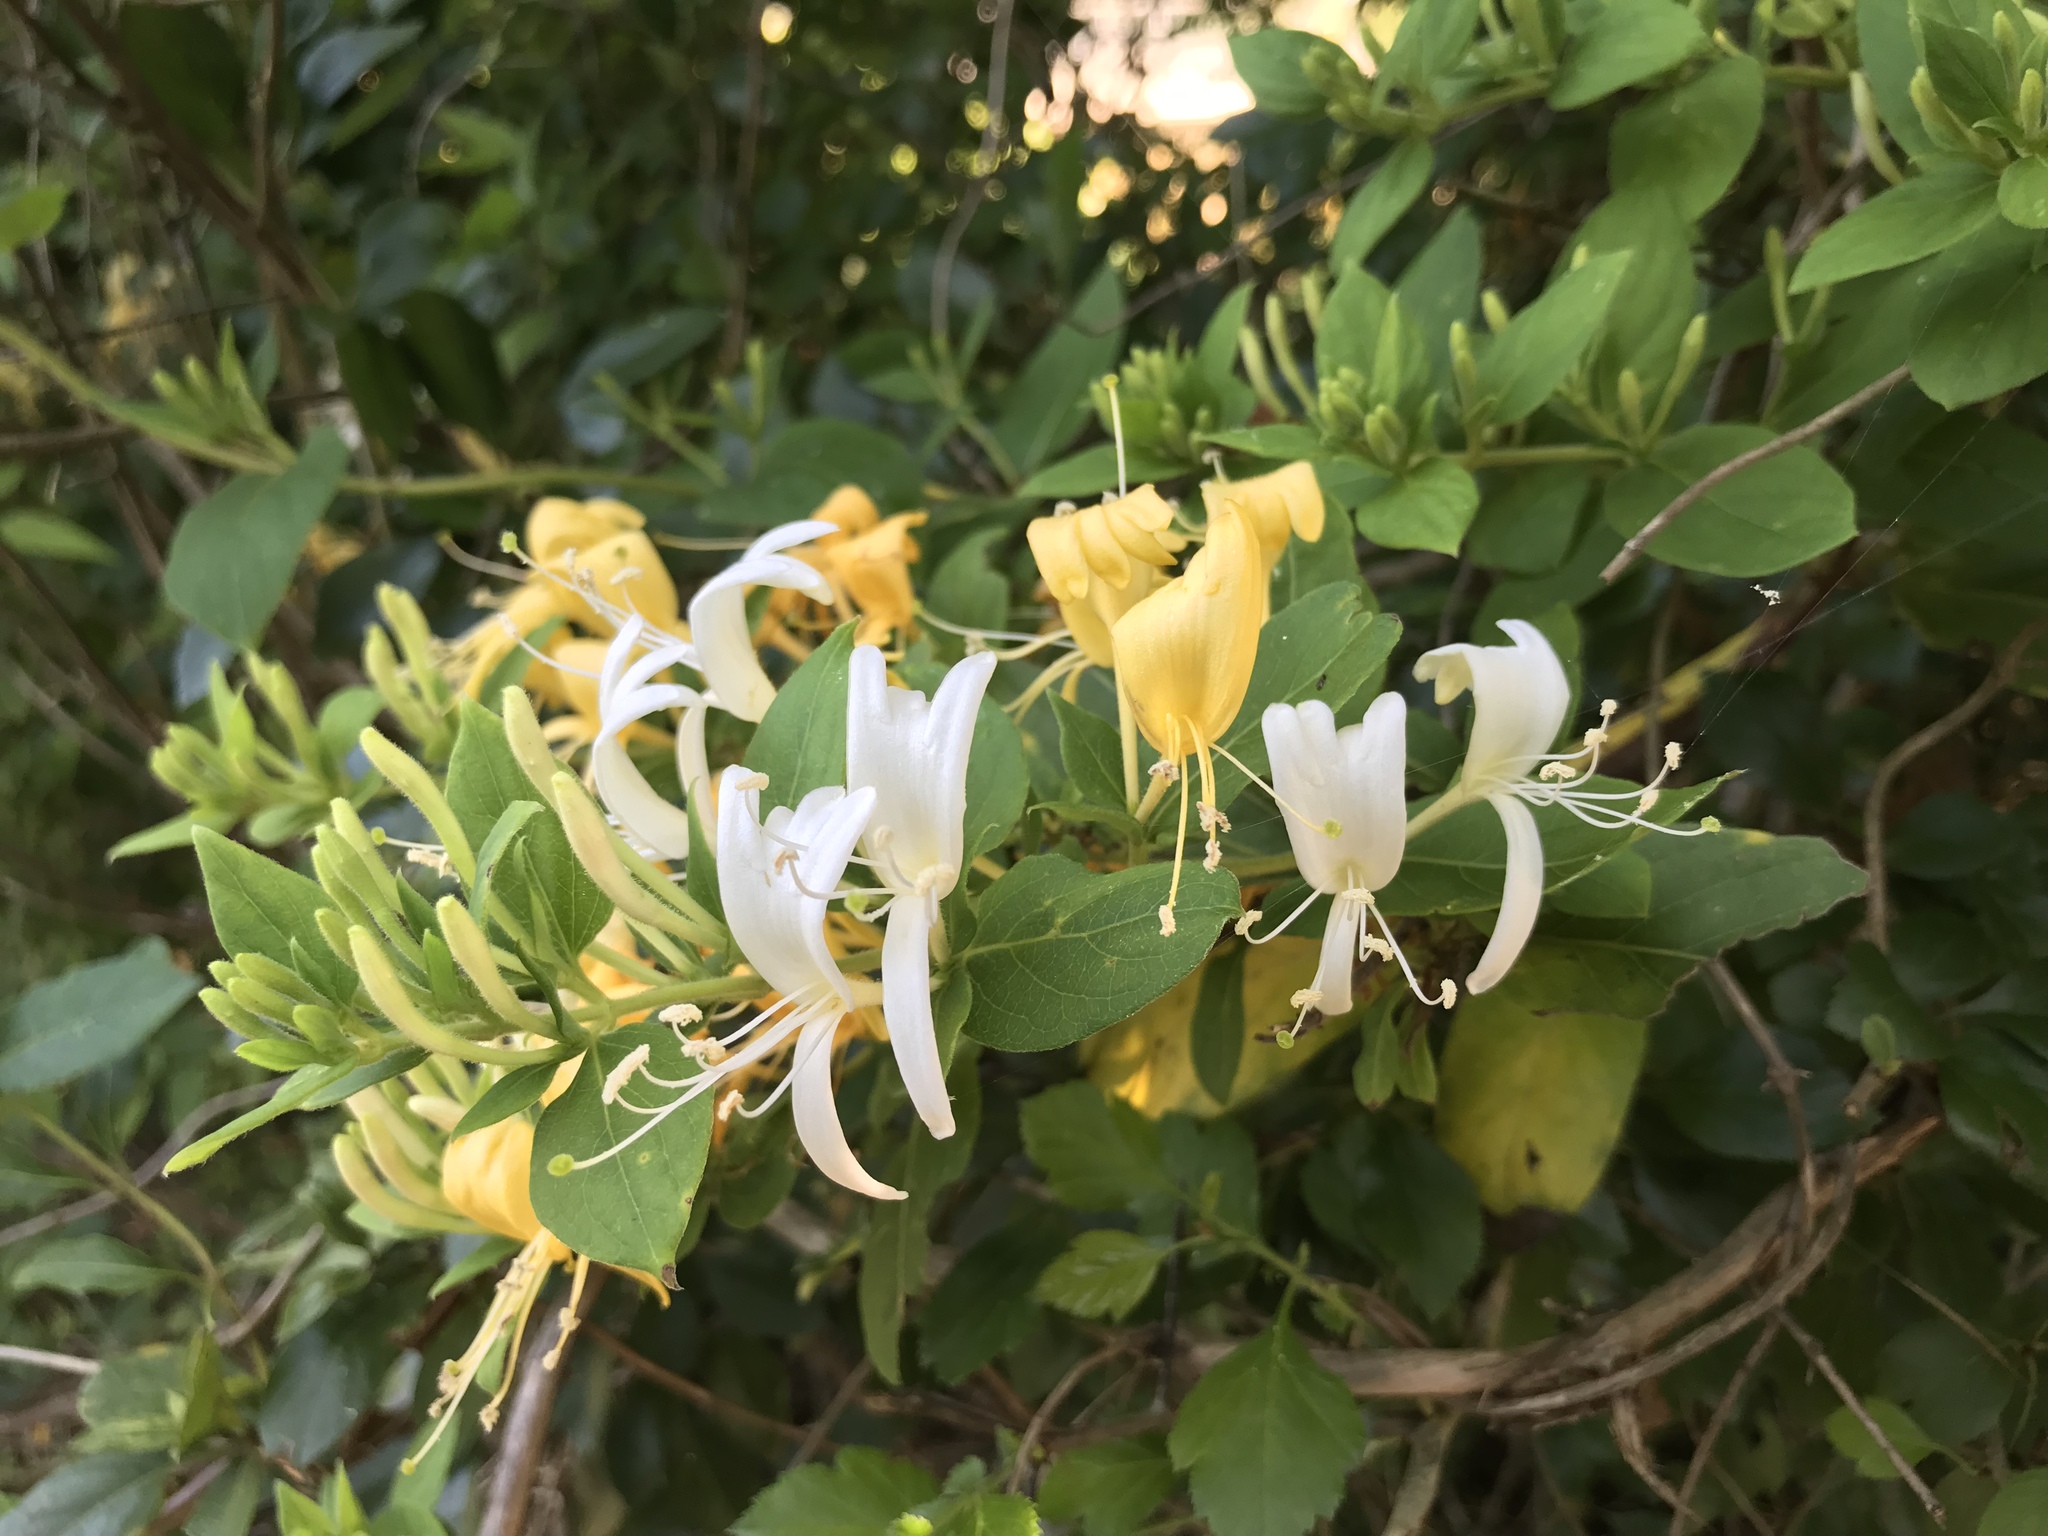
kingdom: Plantae
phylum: Tracheophyta
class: Magnoliopsida
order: Dipsacales
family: Caprifoliaceae
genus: Lonicera
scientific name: Lonicera japonica
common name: Japanese honeysuckle
